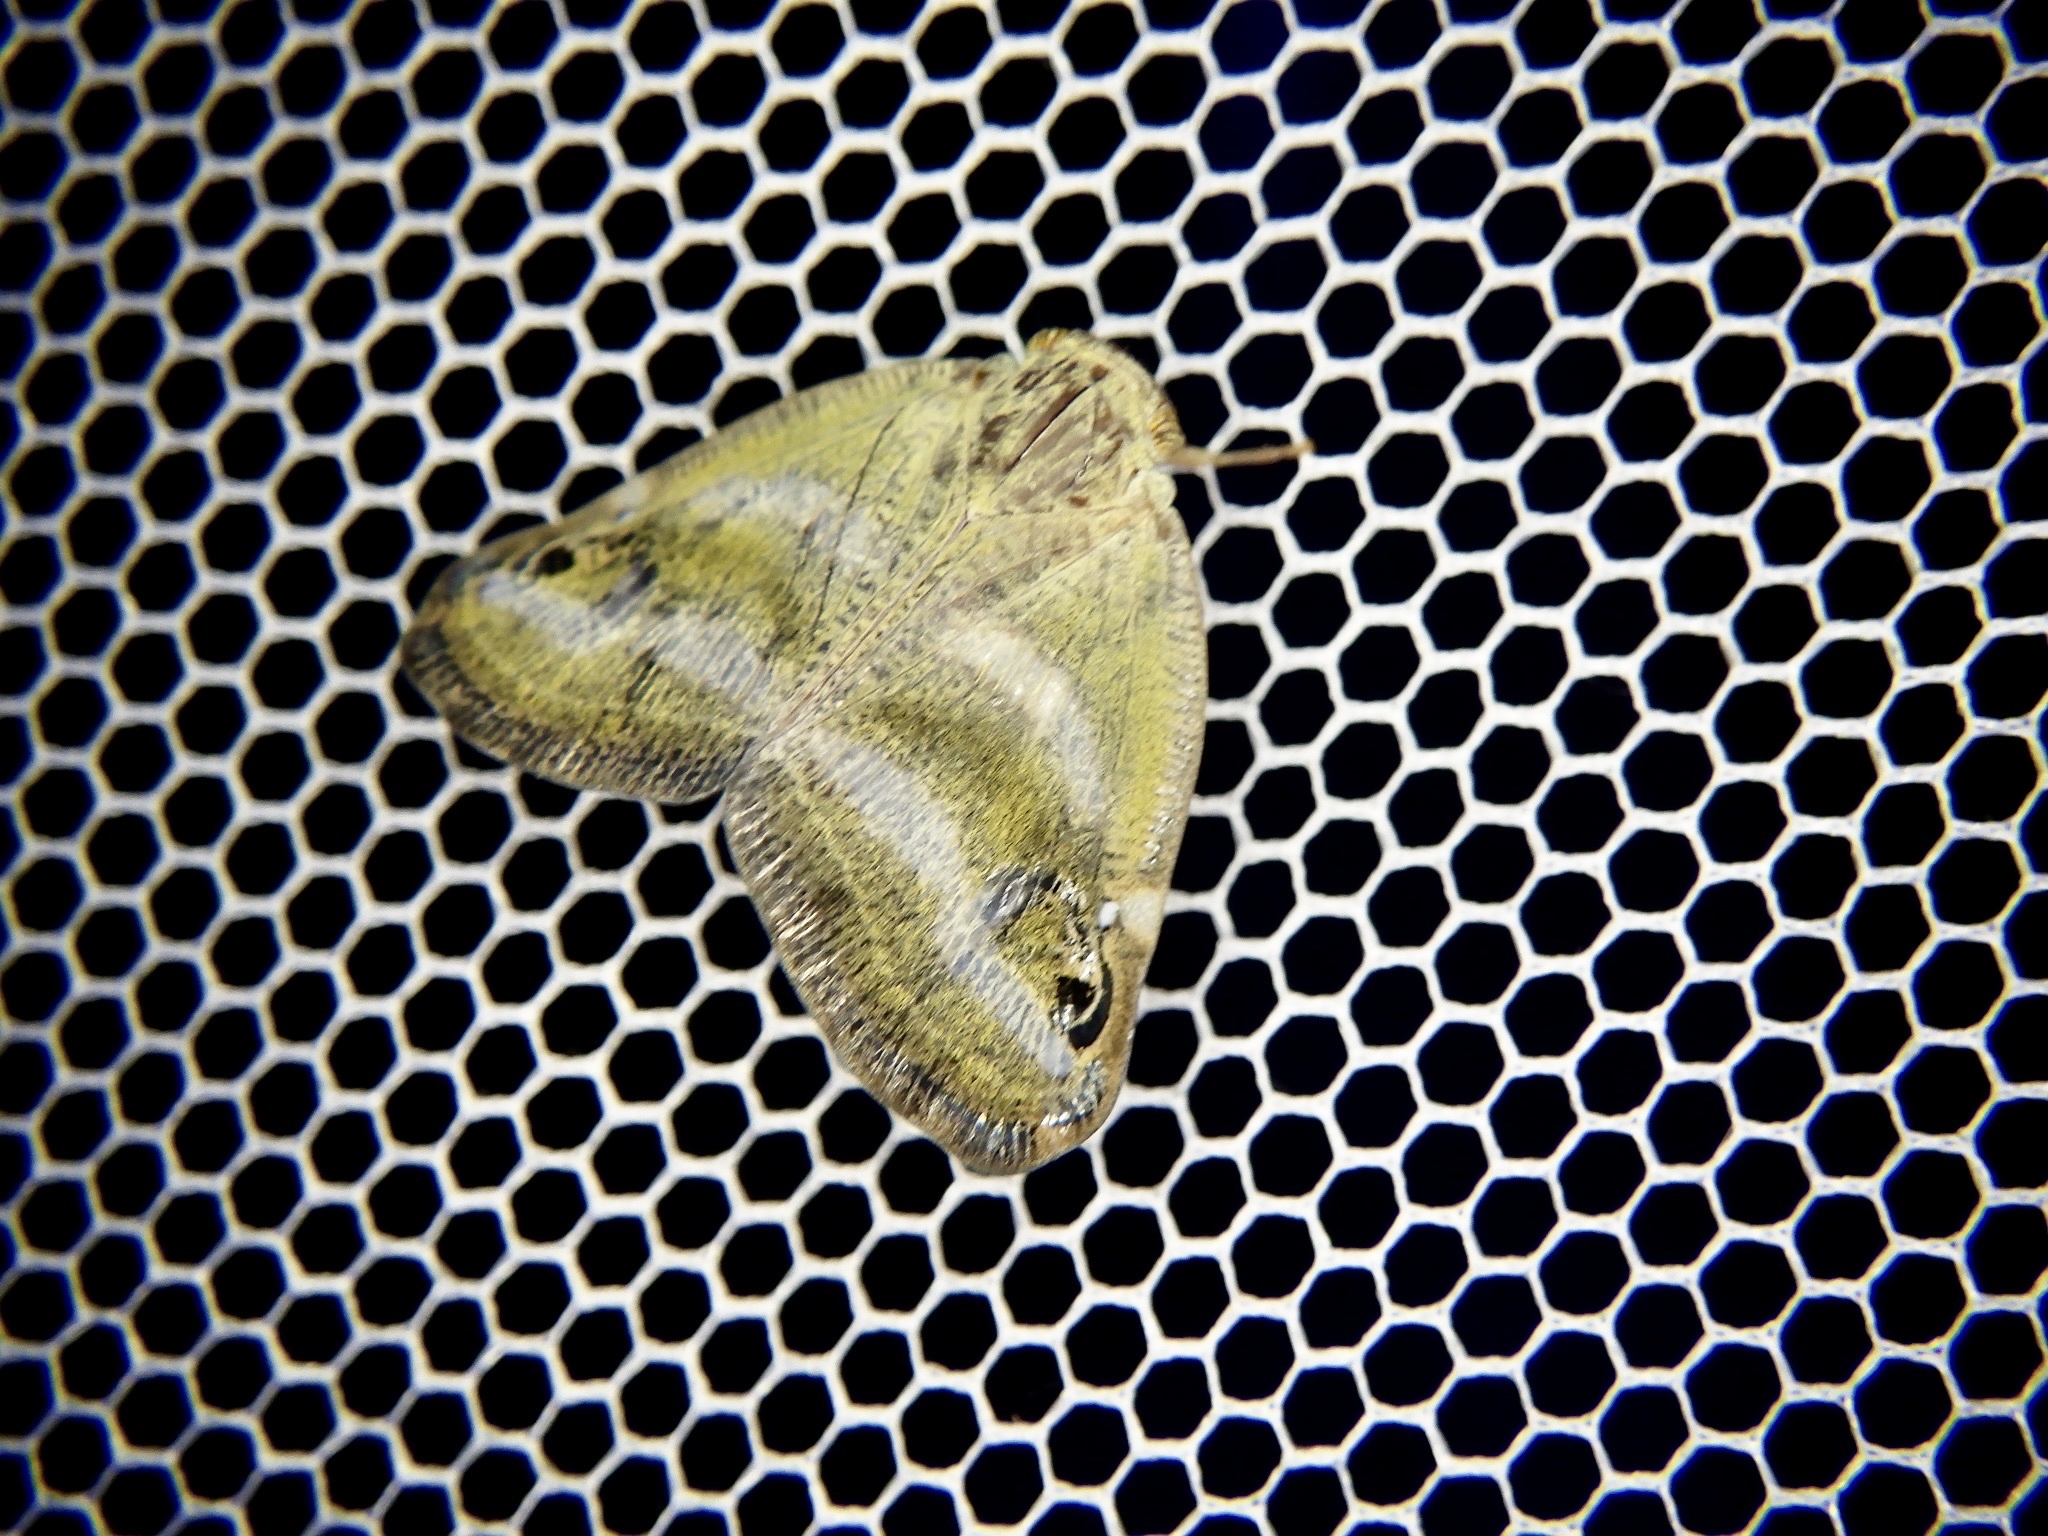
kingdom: Animalia
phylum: Arthropoda
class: Insecta
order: Hemiptera
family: Ricaniidae
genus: Orosanga
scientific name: Orosanga japonica
